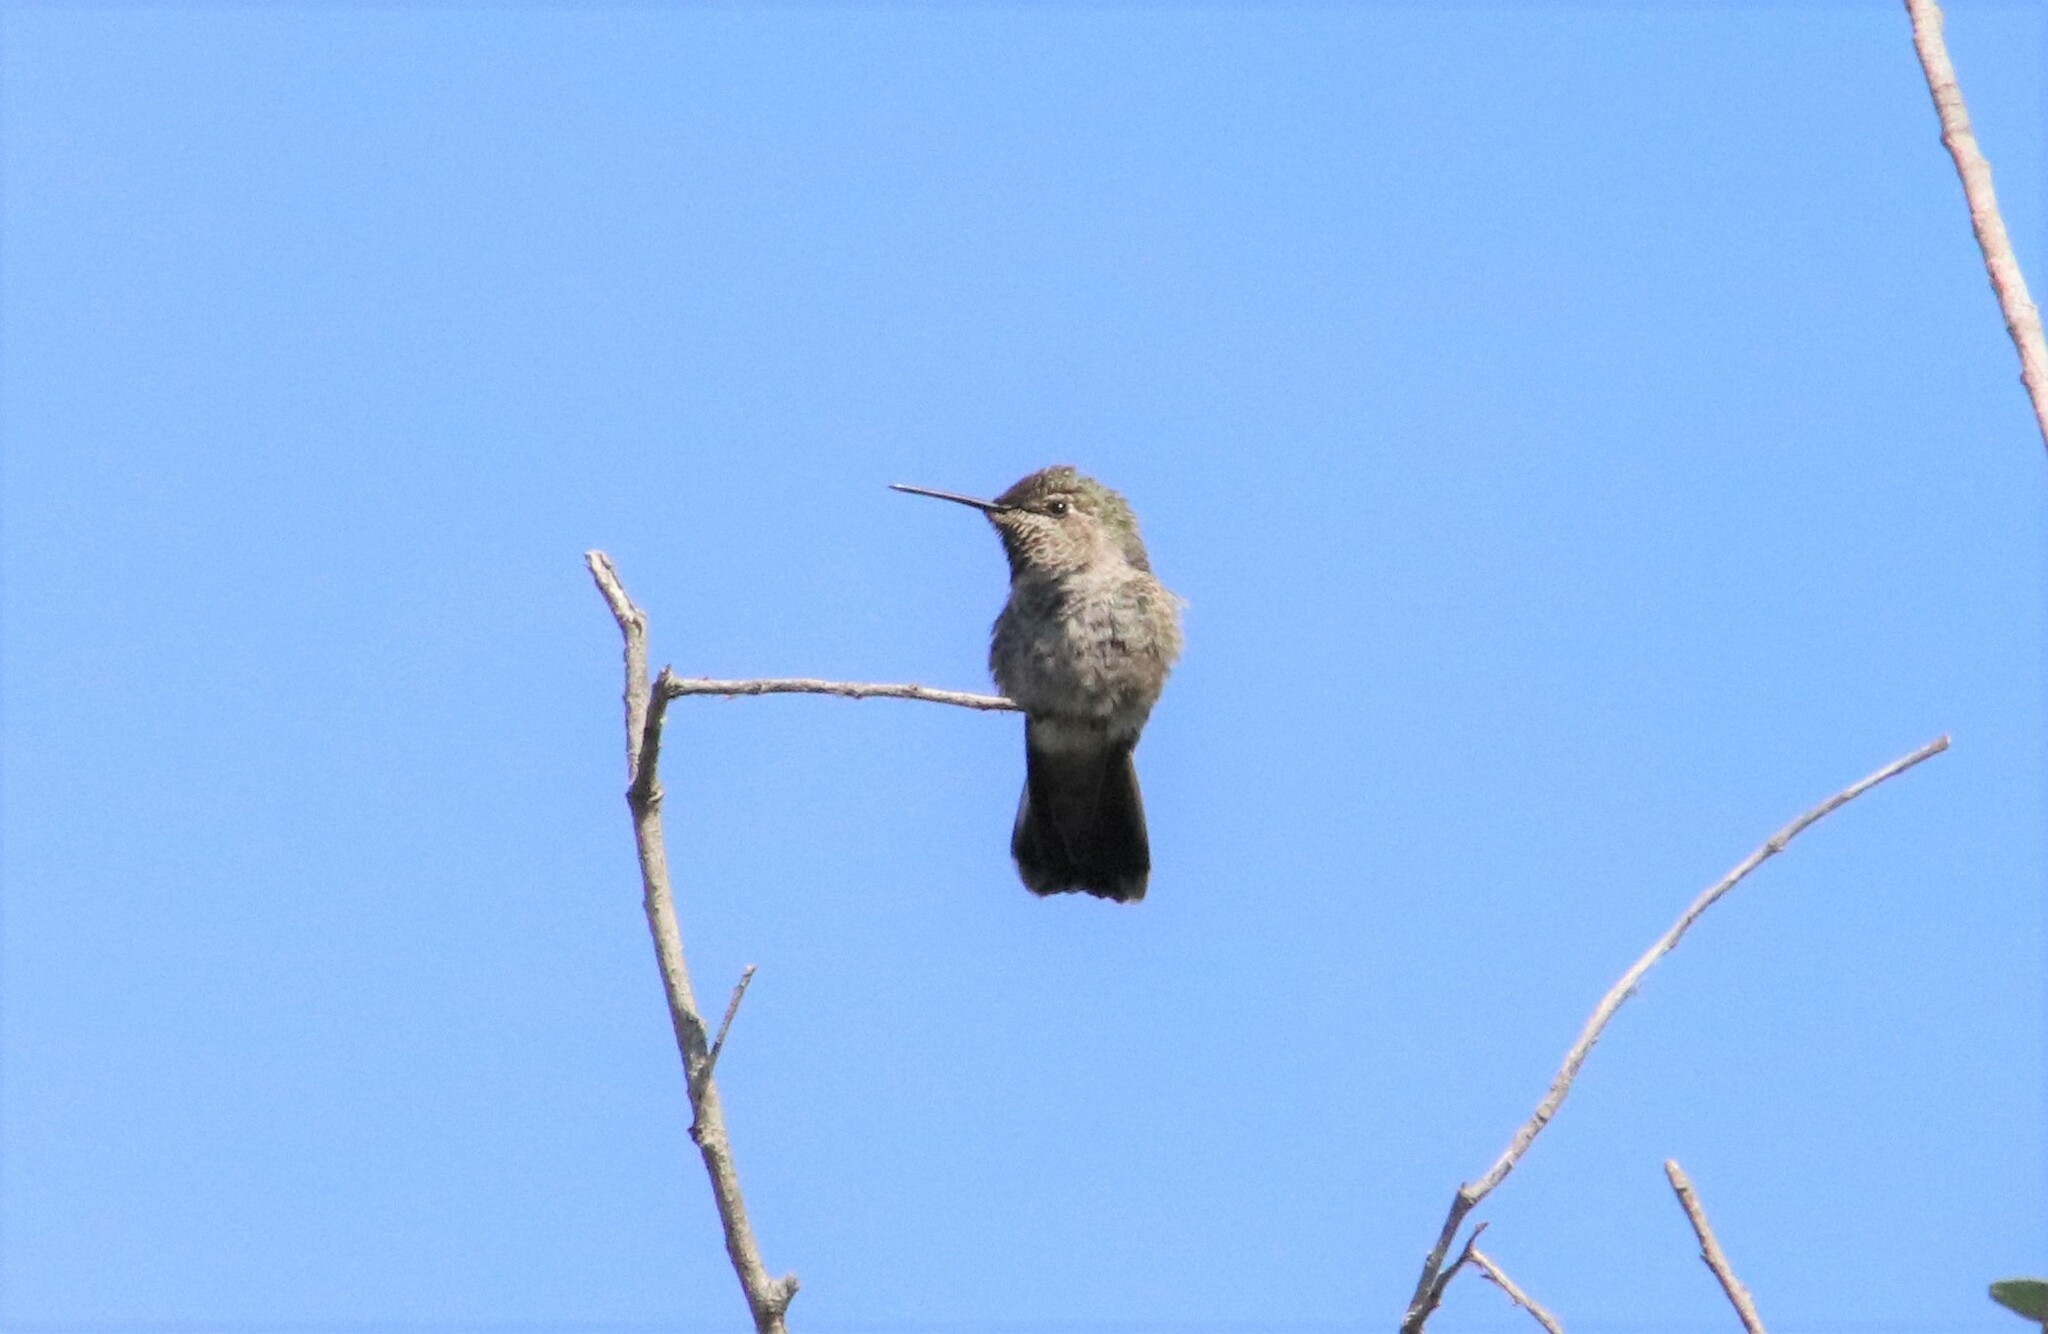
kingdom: Animalia
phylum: Chordata
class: Aves
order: Apodiformes
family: Trochilidae
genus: Calypte
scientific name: Calypte anna
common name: Anna's hummingbird
